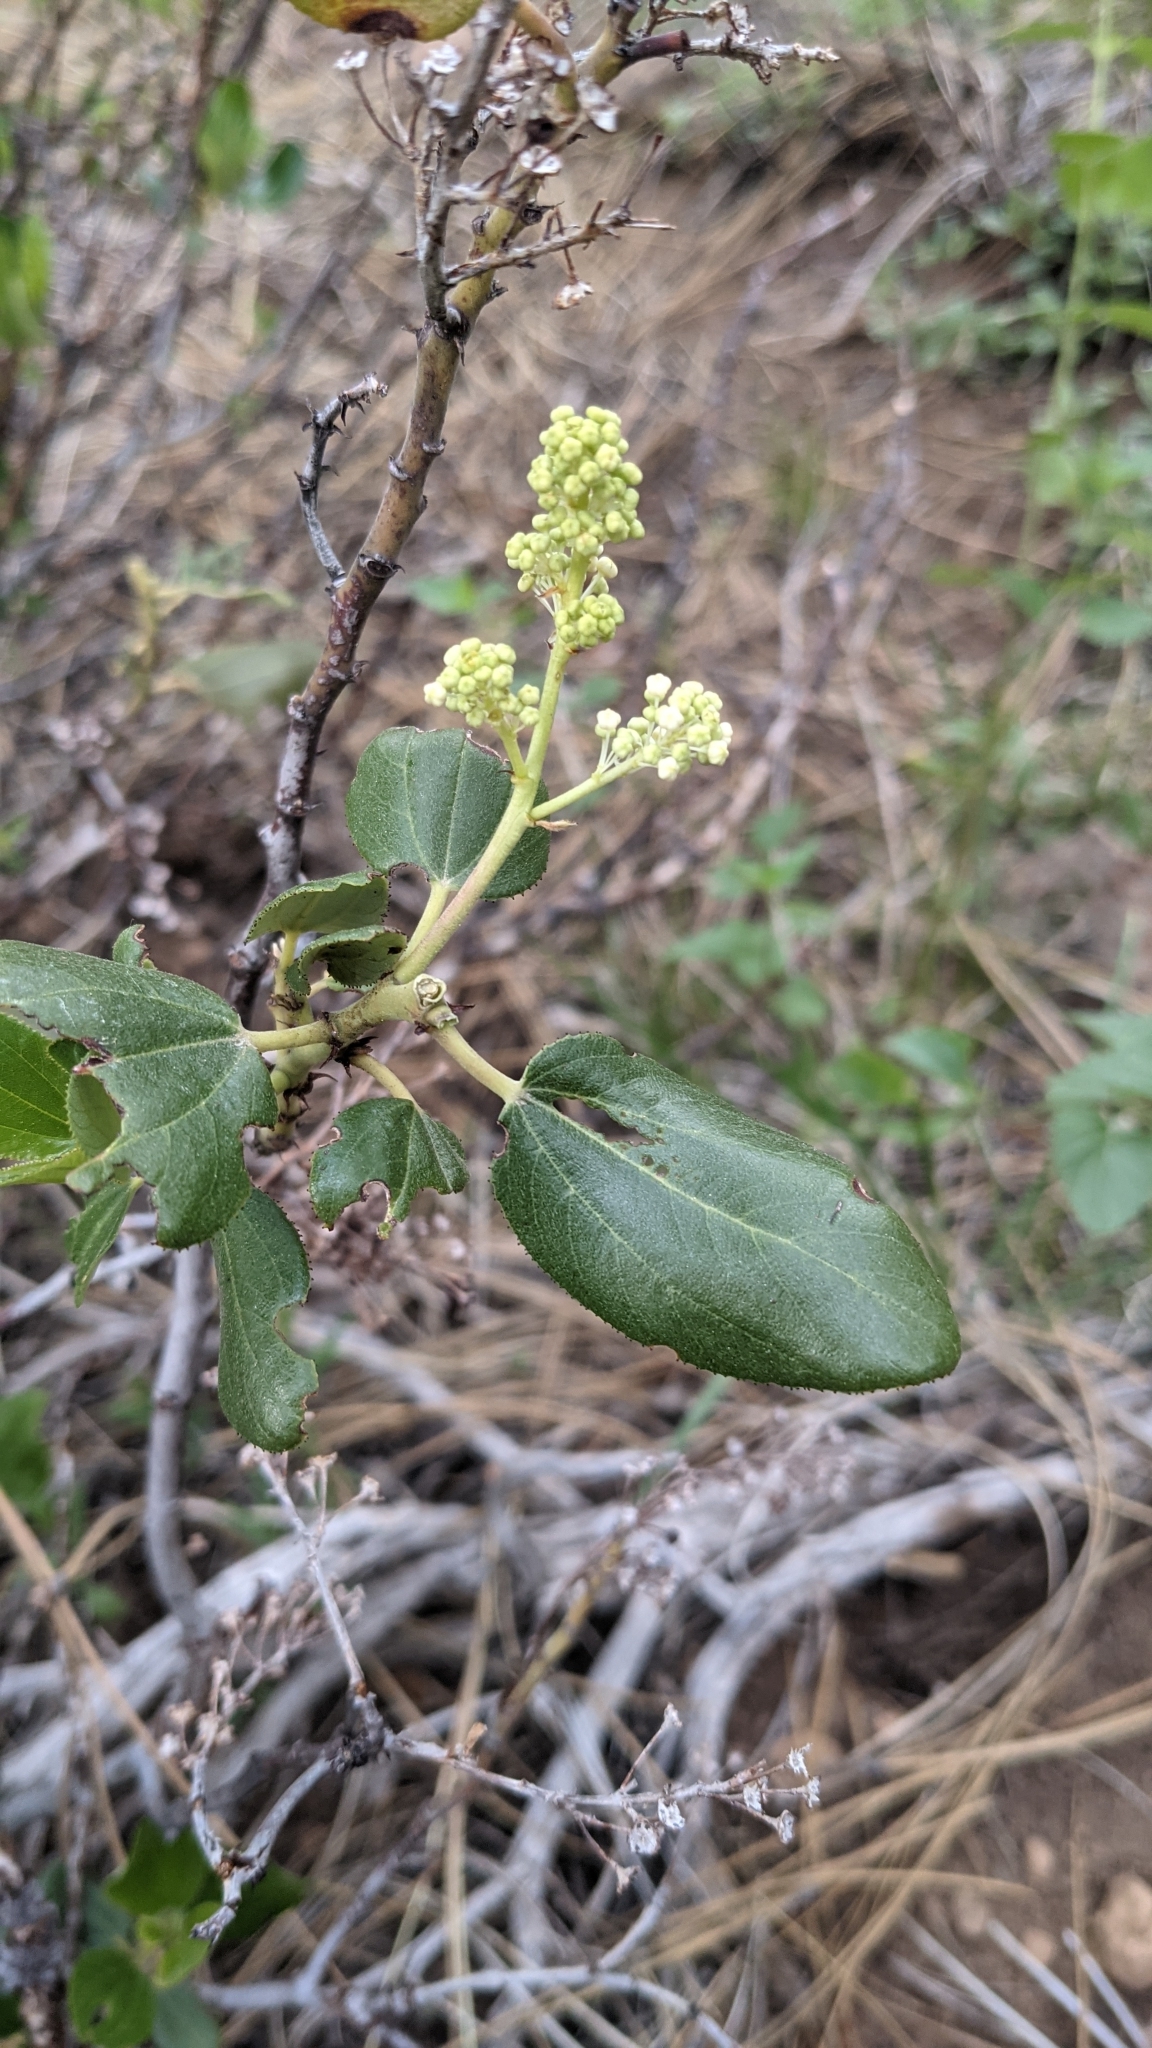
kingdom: Plantae
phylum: Tracheophyta
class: Magnoliopsida
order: Rosales
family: Rhamnaceae
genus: Ceanothus
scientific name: Ceanothus velutinus
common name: Snowbrush
